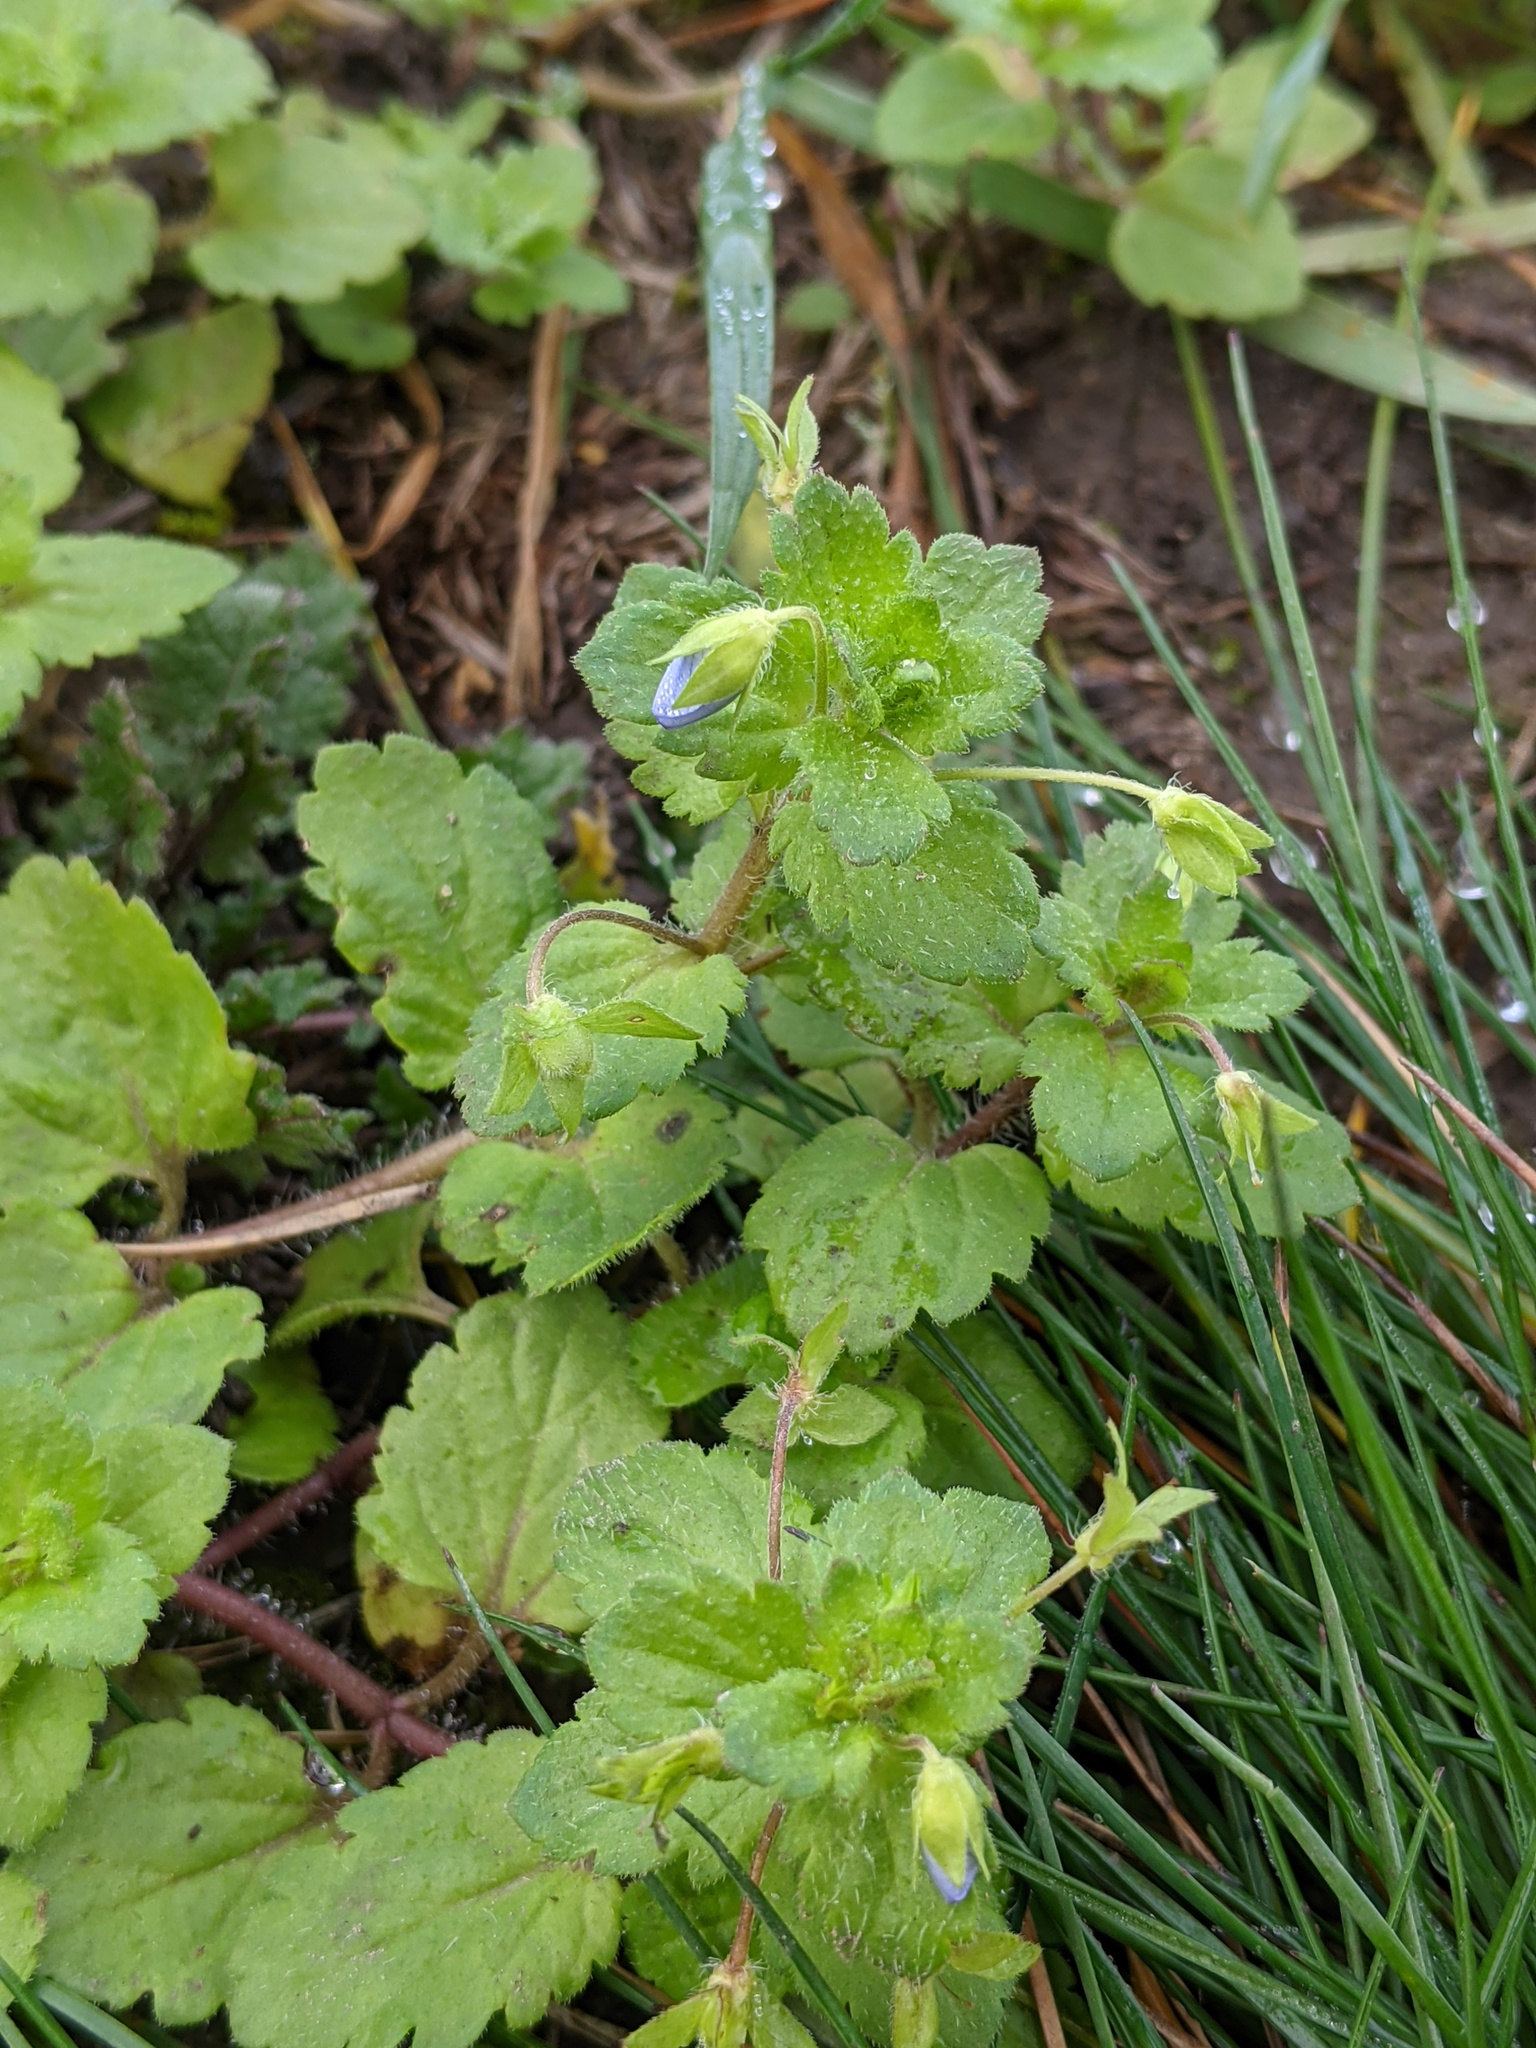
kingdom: Plantae
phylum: Tracheophyta
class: Magnoliopsida
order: Lamiales
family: Plantaginaceae
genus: Veronica
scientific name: Veronica persica
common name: Common field-speedwell
